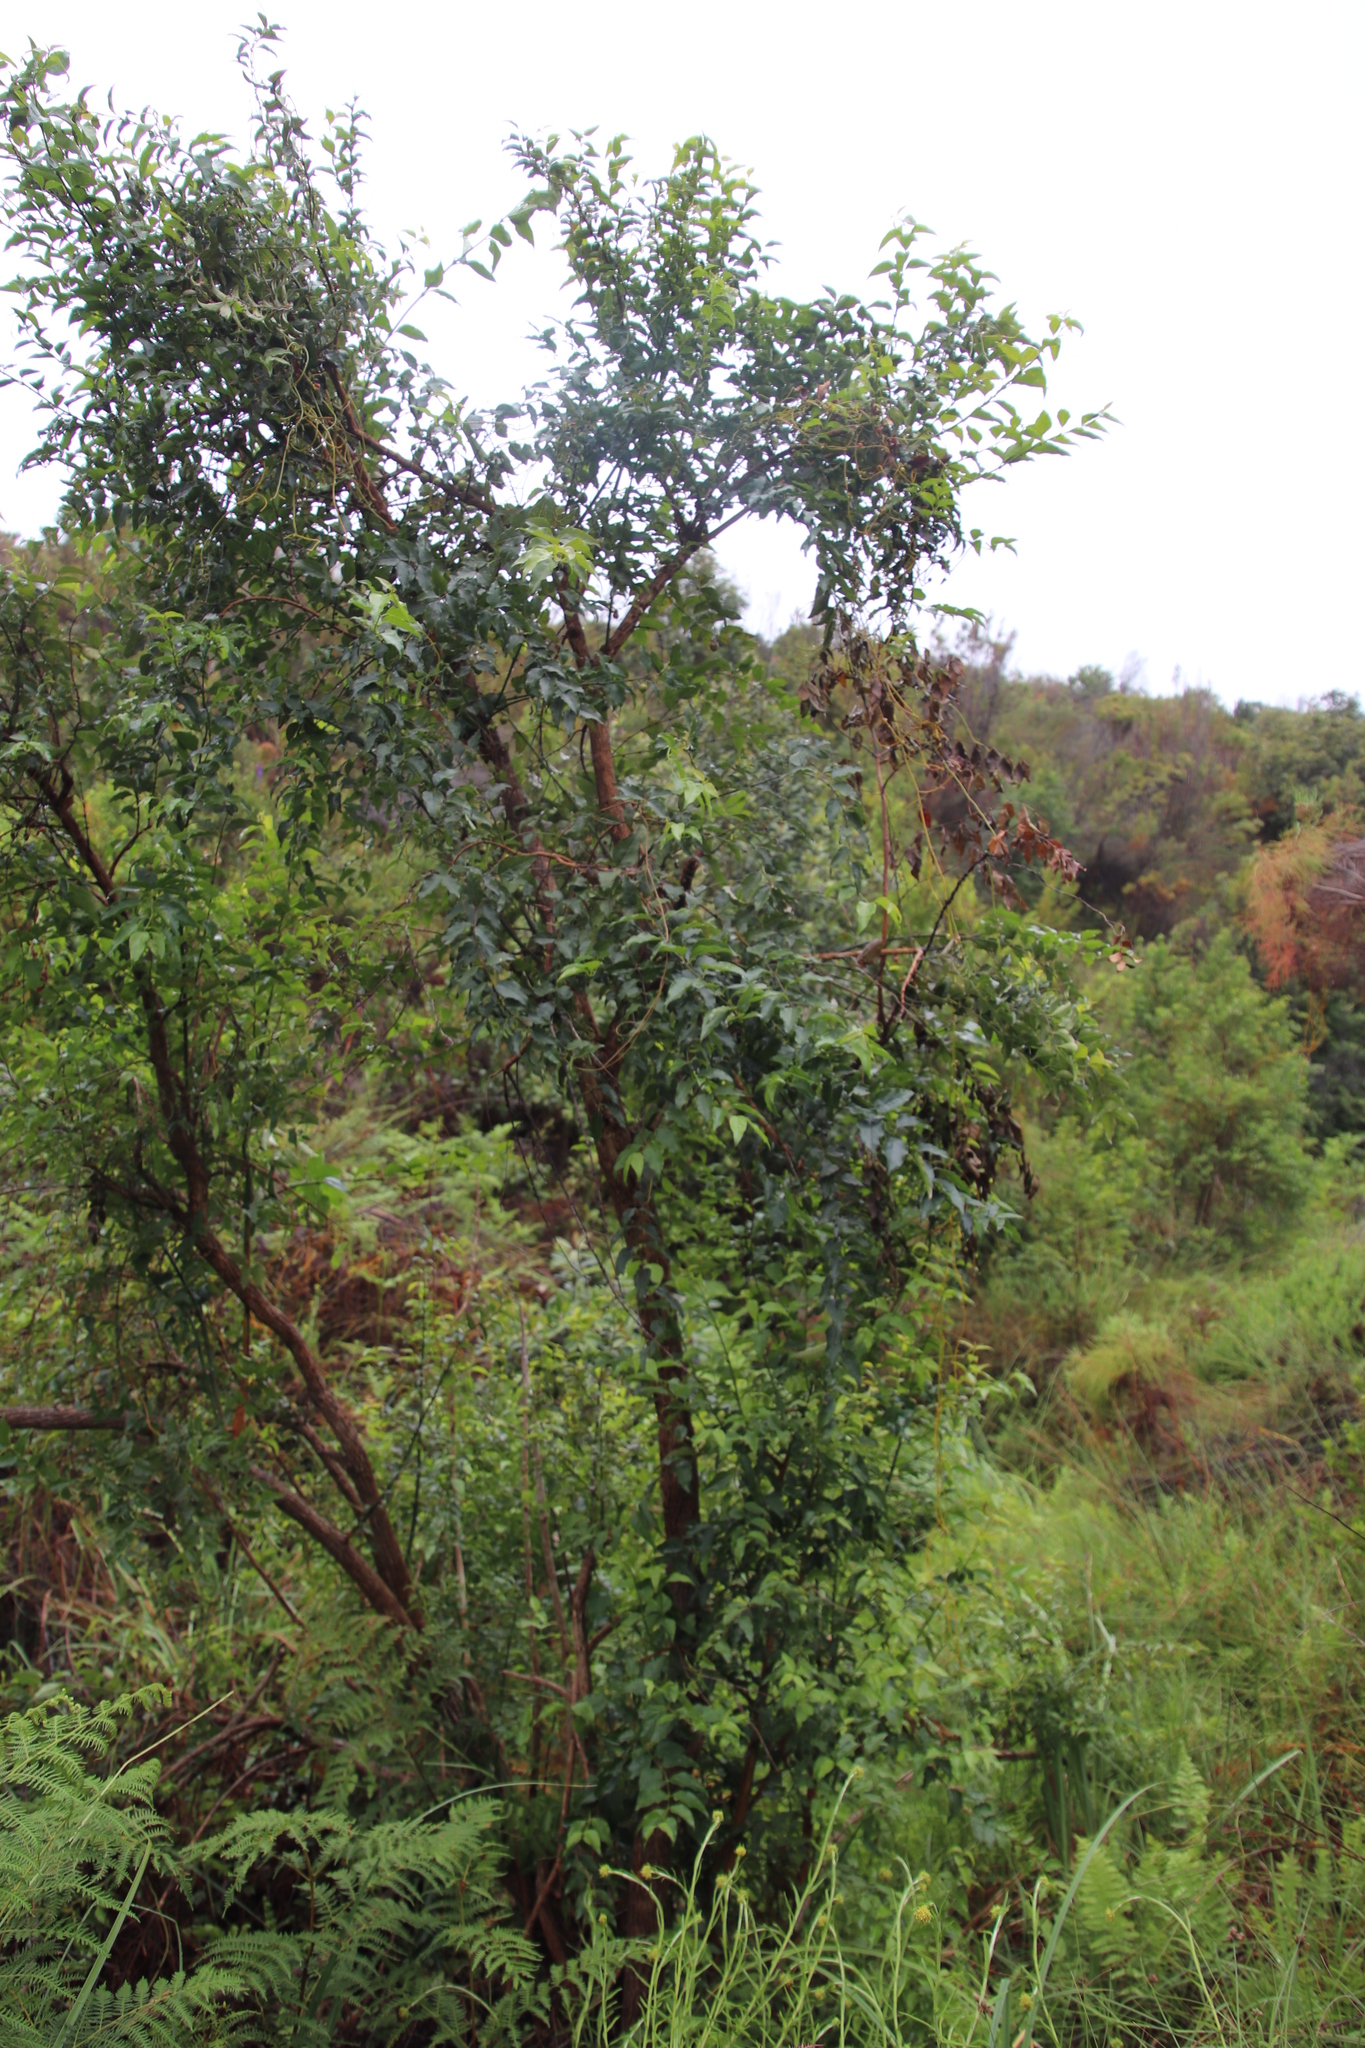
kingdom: Plantae
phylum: Tracheophyta
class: Magnoliopsida
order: Lamiales
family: Stilbaceae
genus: Halleria
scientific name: Halleria lucida
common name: Tree fuschia
